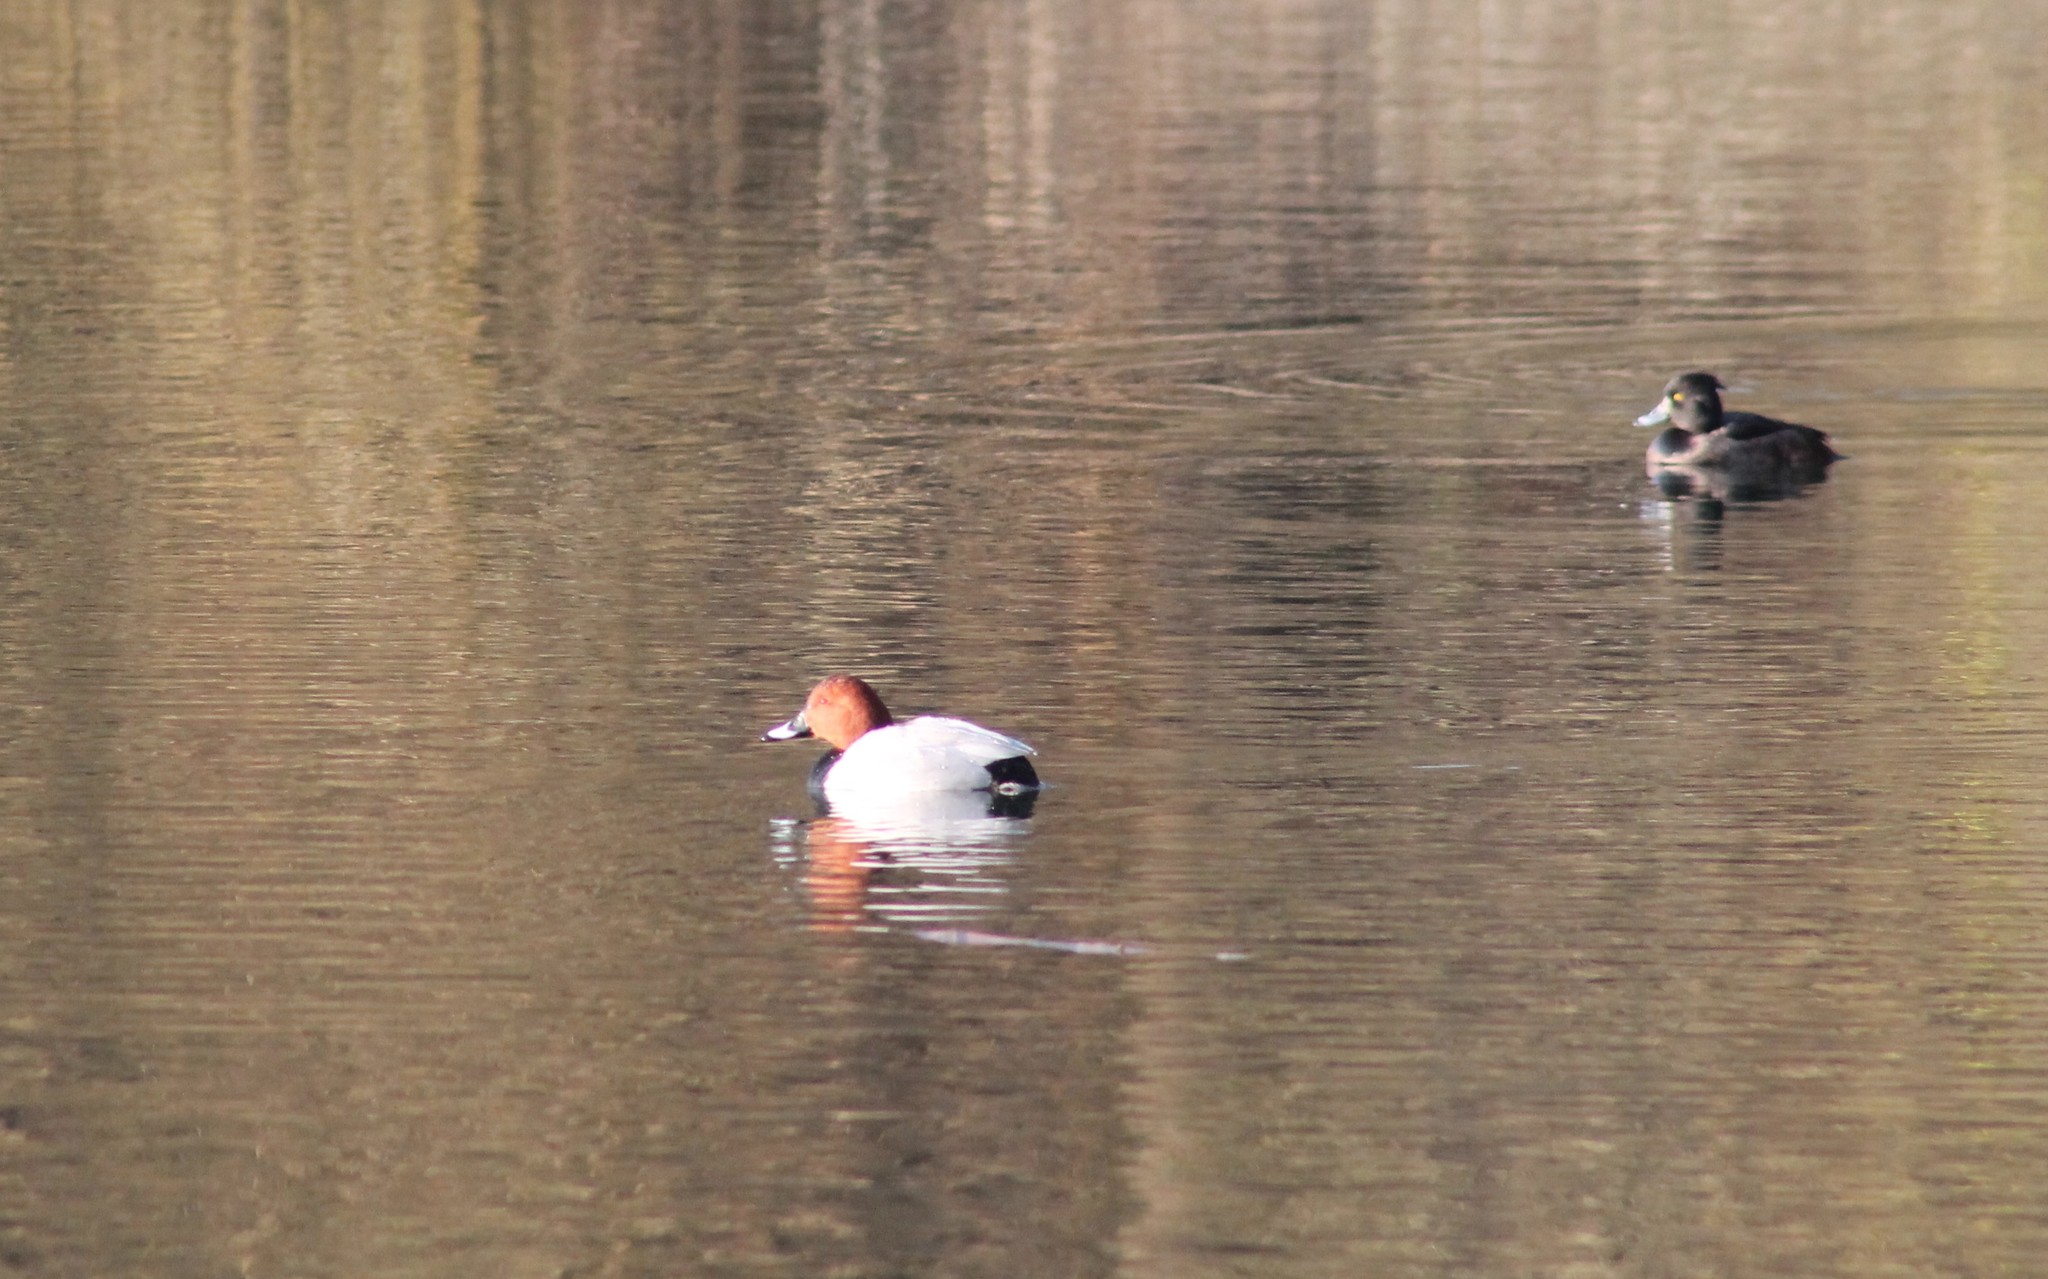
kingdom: Animalia
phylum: Chordata
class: Aves
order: Anseriformes
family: Anatidae
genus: Aythya
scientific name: Aythya ferina
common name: Common pochard
